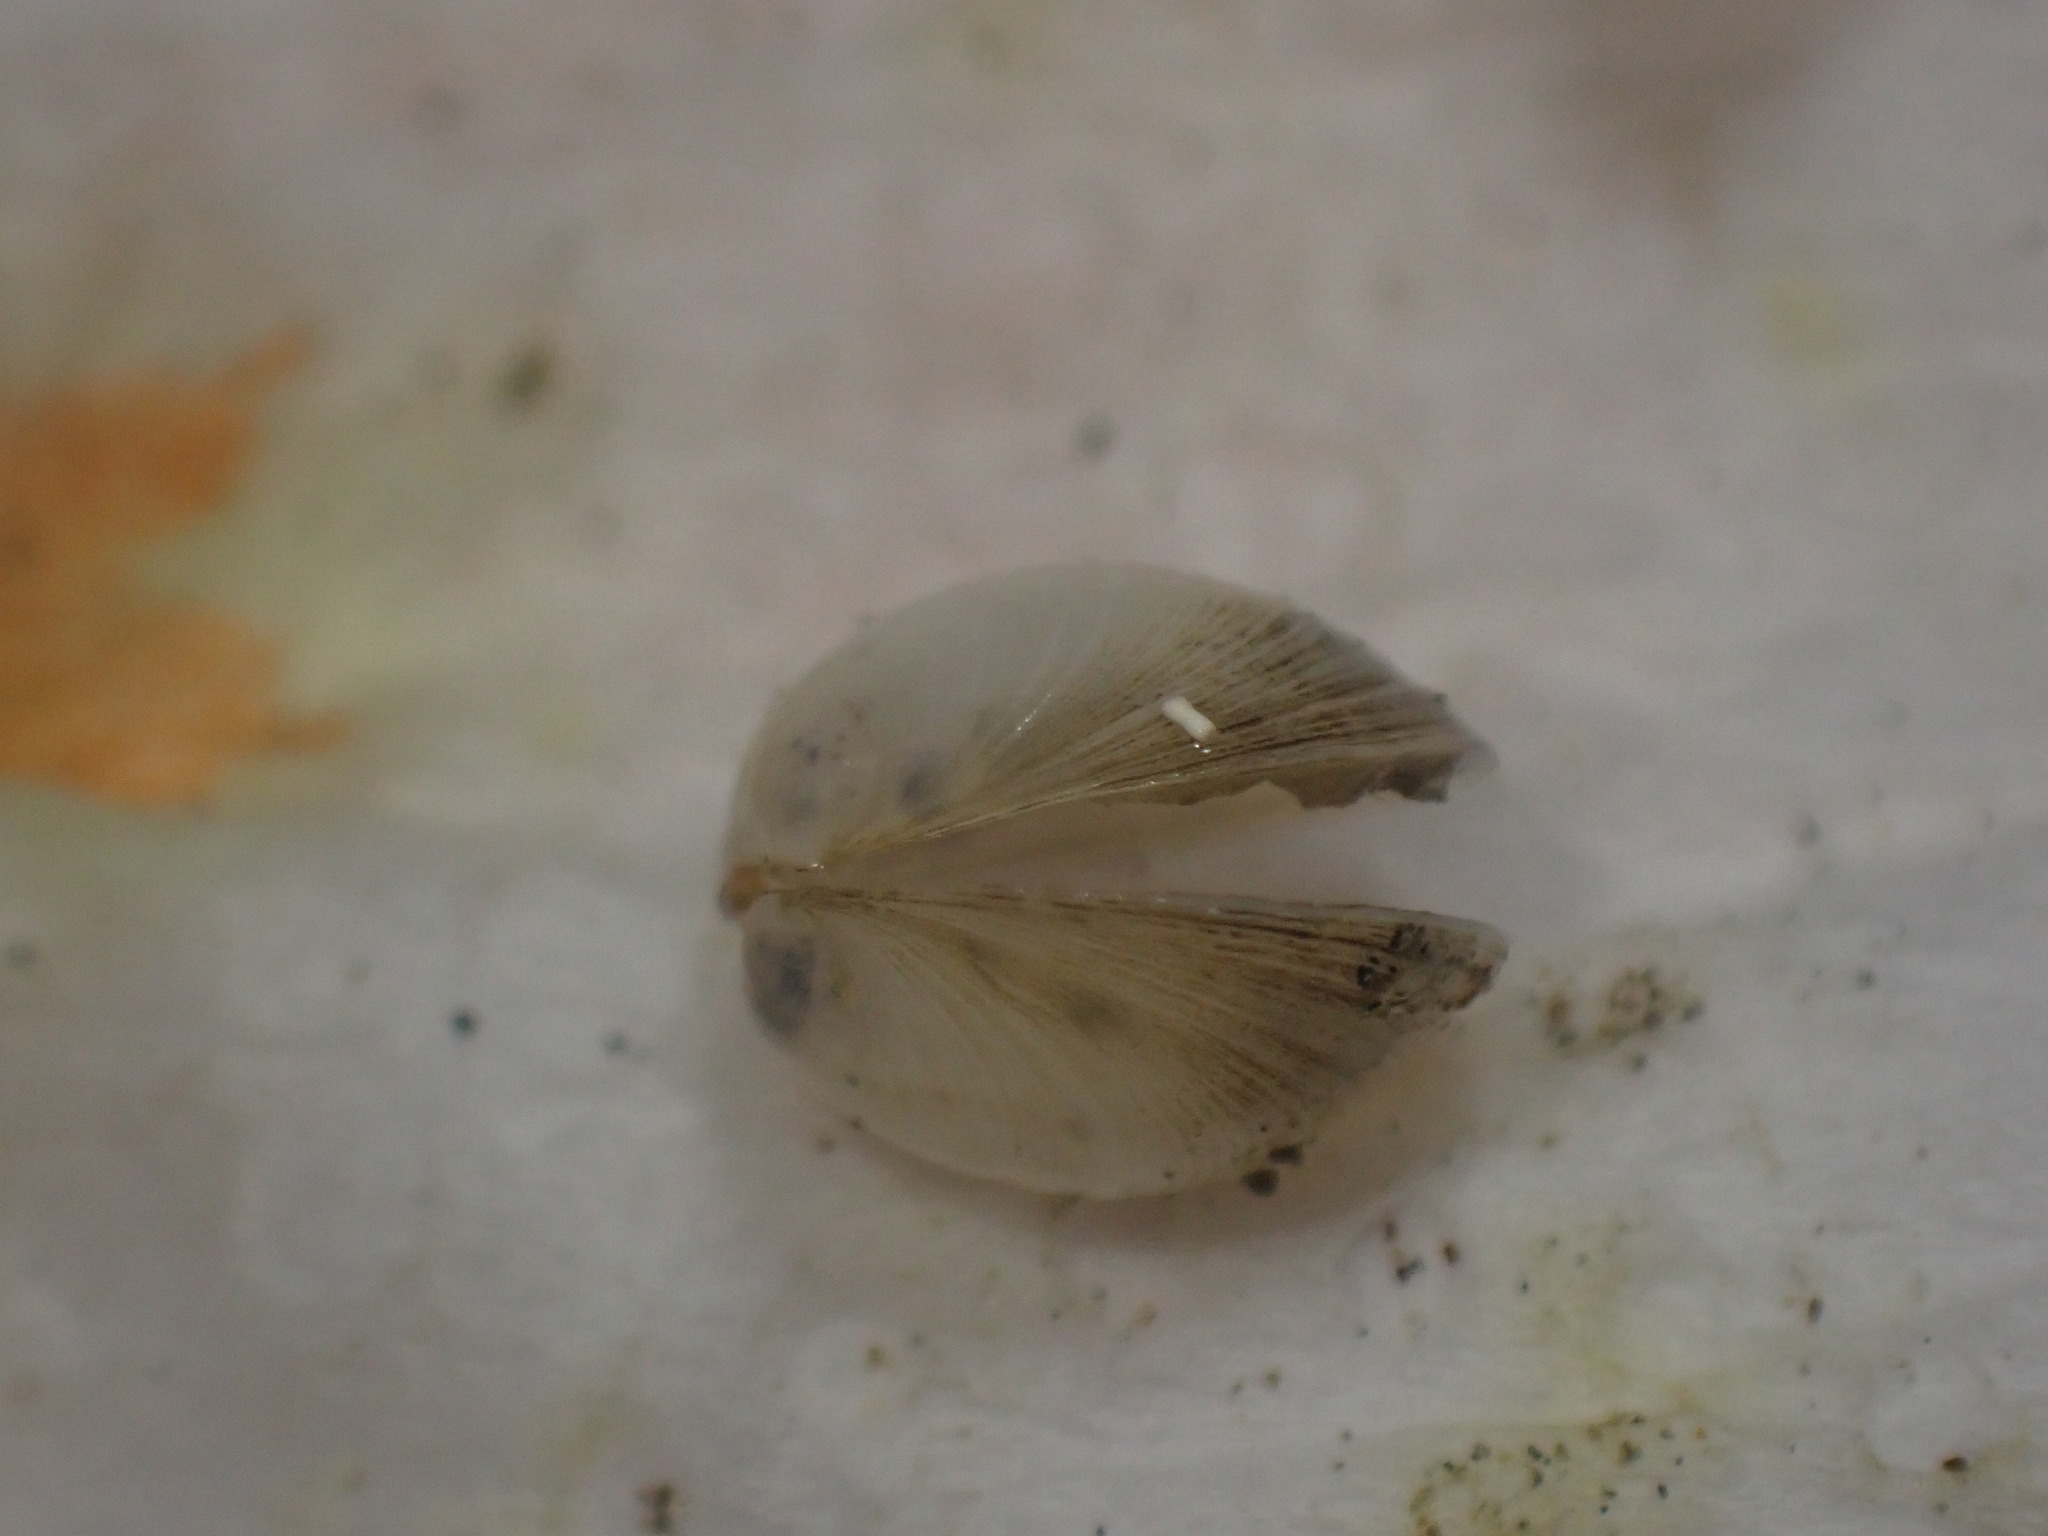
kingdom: Animalia
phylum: Mollusca
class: Bivalvia
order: Venerida
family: Ungulinidae
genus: Zemysina
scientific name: Zemysina striatula
